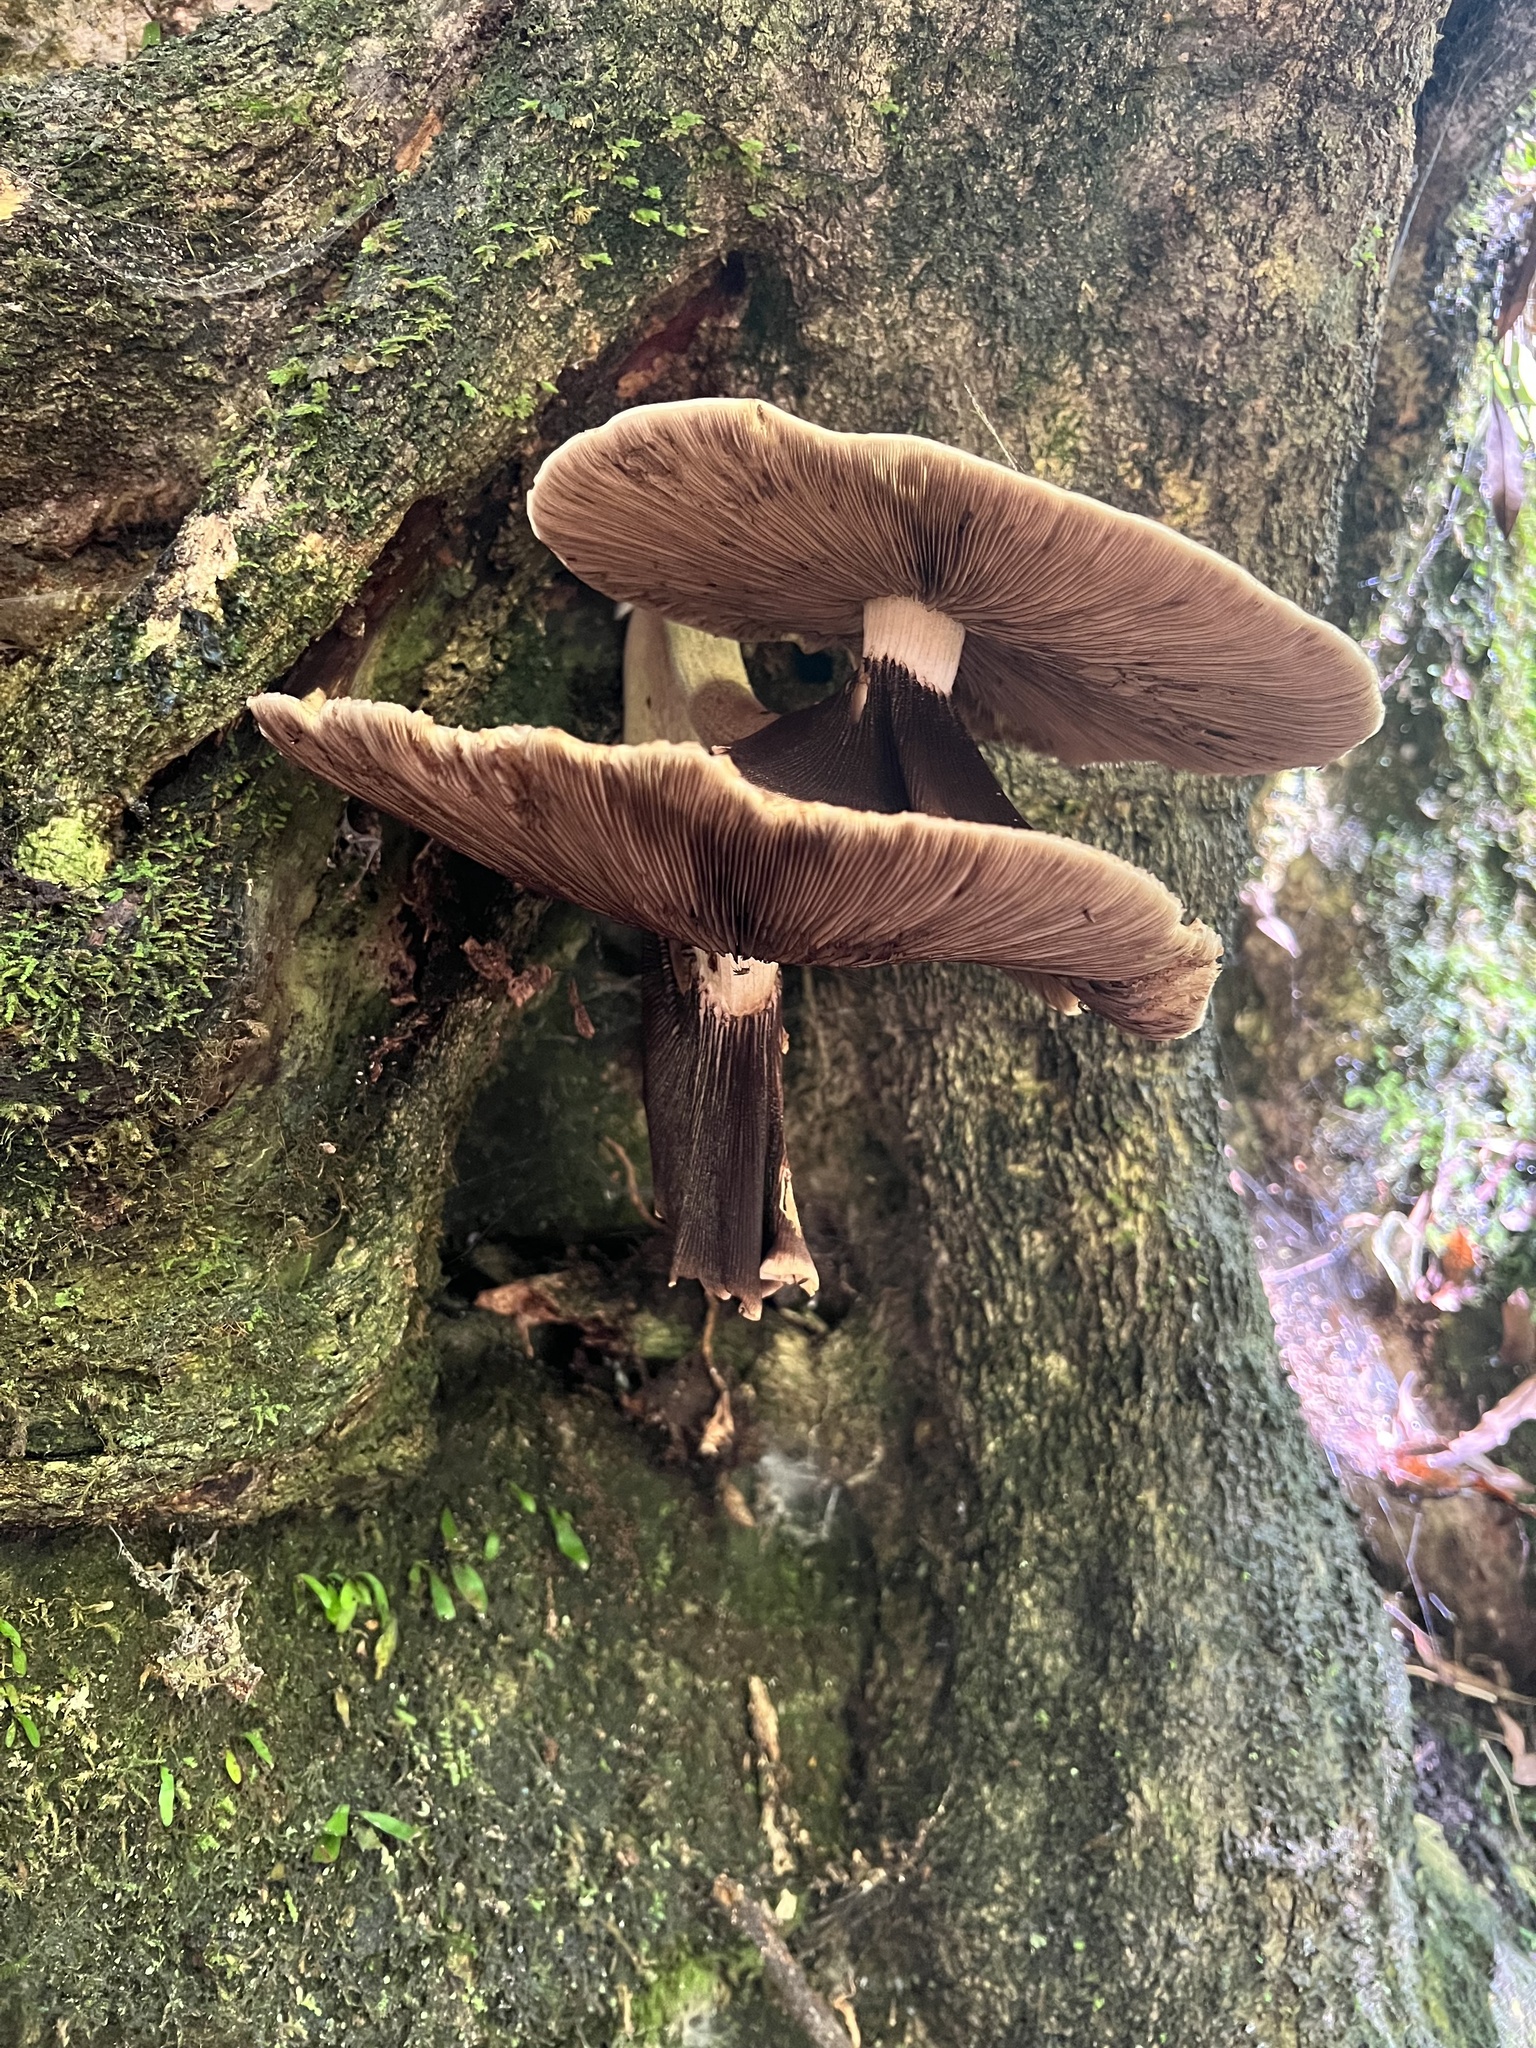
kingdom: Fungi
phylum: Basidiomycota
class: Agaricomycetes
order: Agaricales
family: Tubariaceae
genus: Cyclocybe
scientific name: Cyclocybe parasitica
